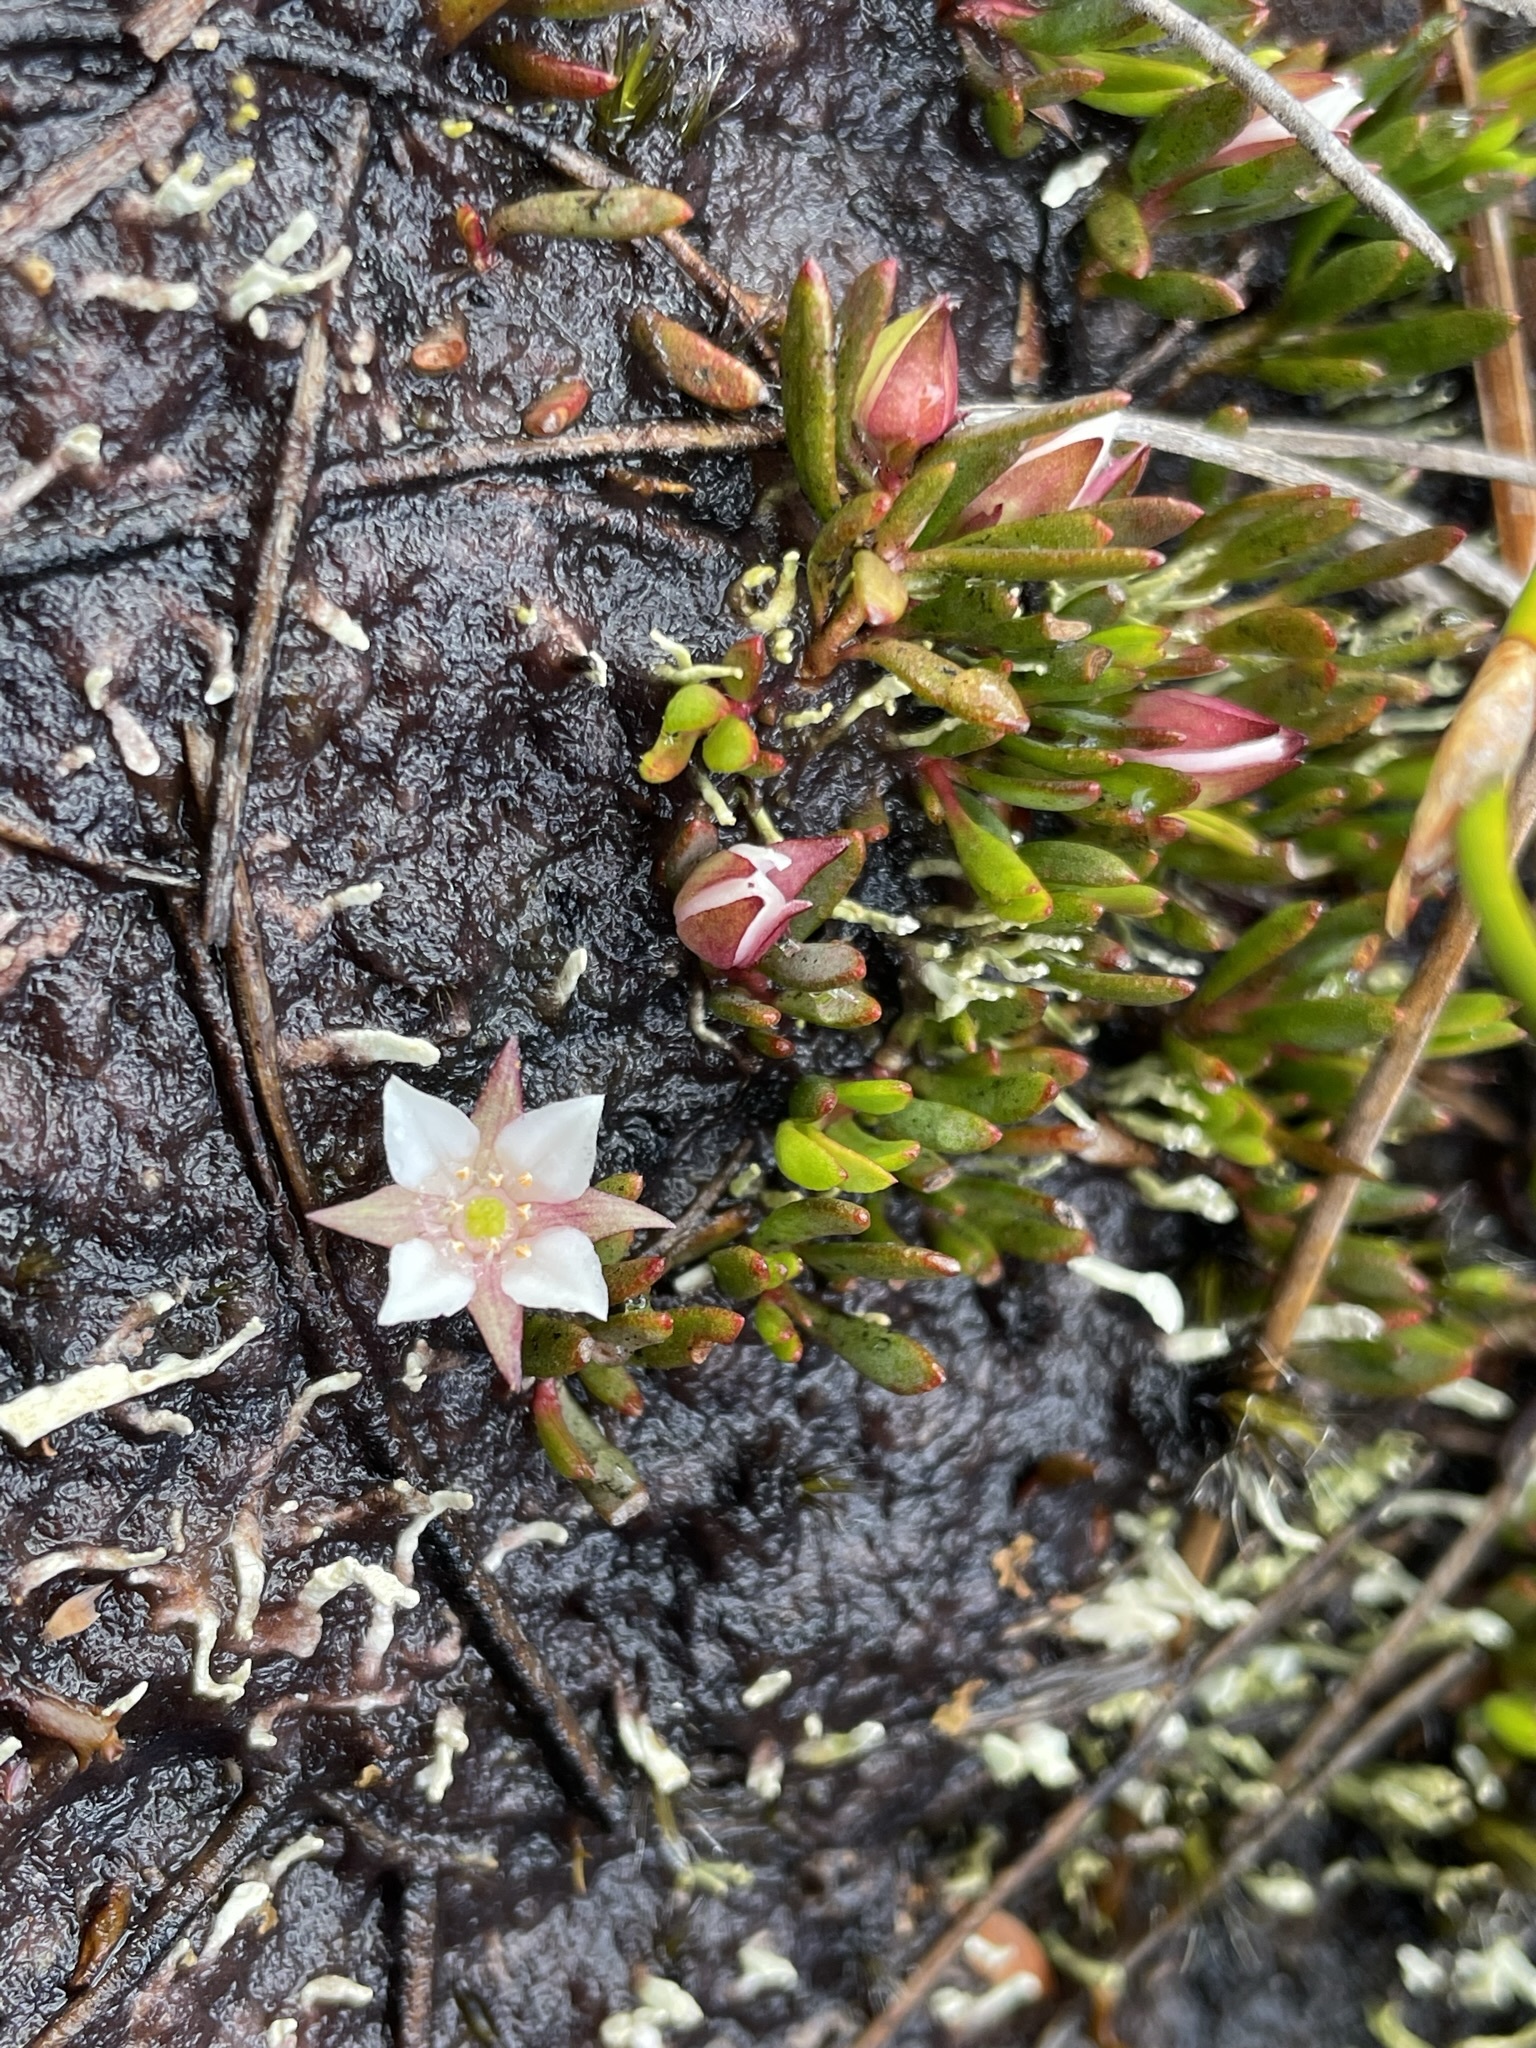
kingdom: Plantae
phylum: Tracheophyta
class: Magnoliopsida
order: Sapindales
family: Rutaceae
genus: Boronia
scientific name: Boronia parviflora
